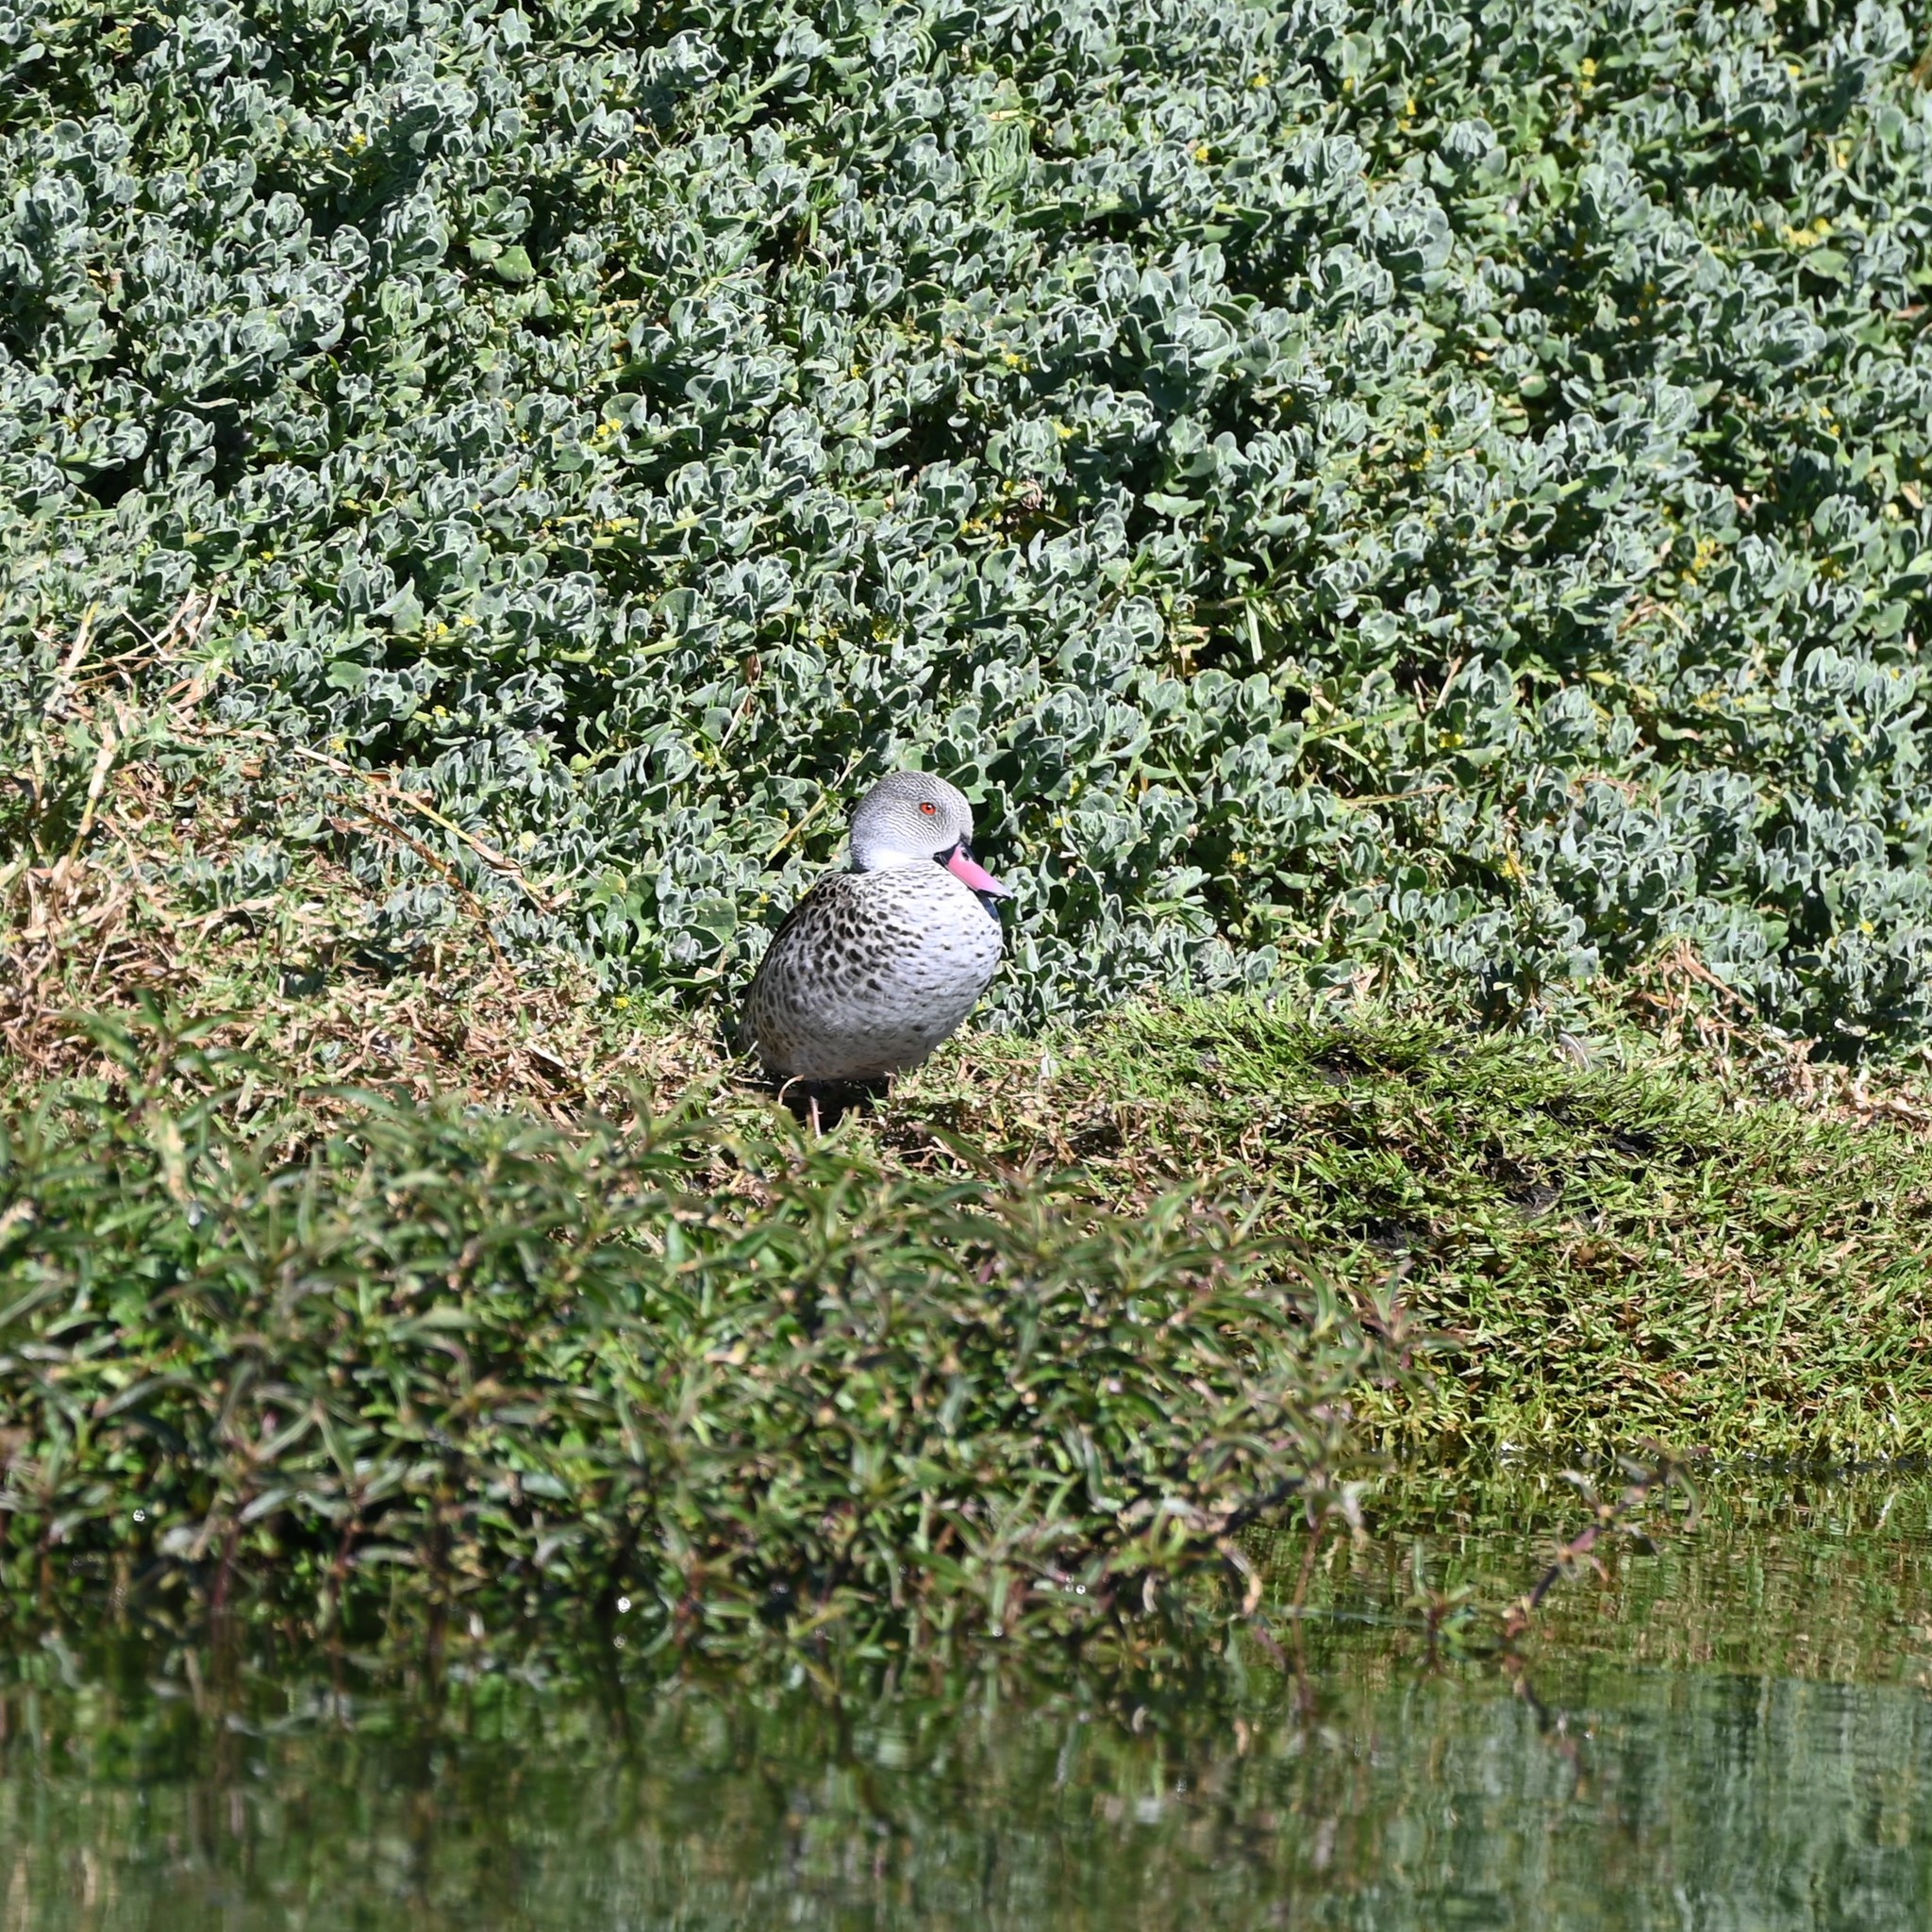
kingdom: Animalia
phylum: Chordata
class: Aves
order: Anseriformes
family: Anatidae
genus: Anas
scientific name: Anas capensis
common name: Cape teal
